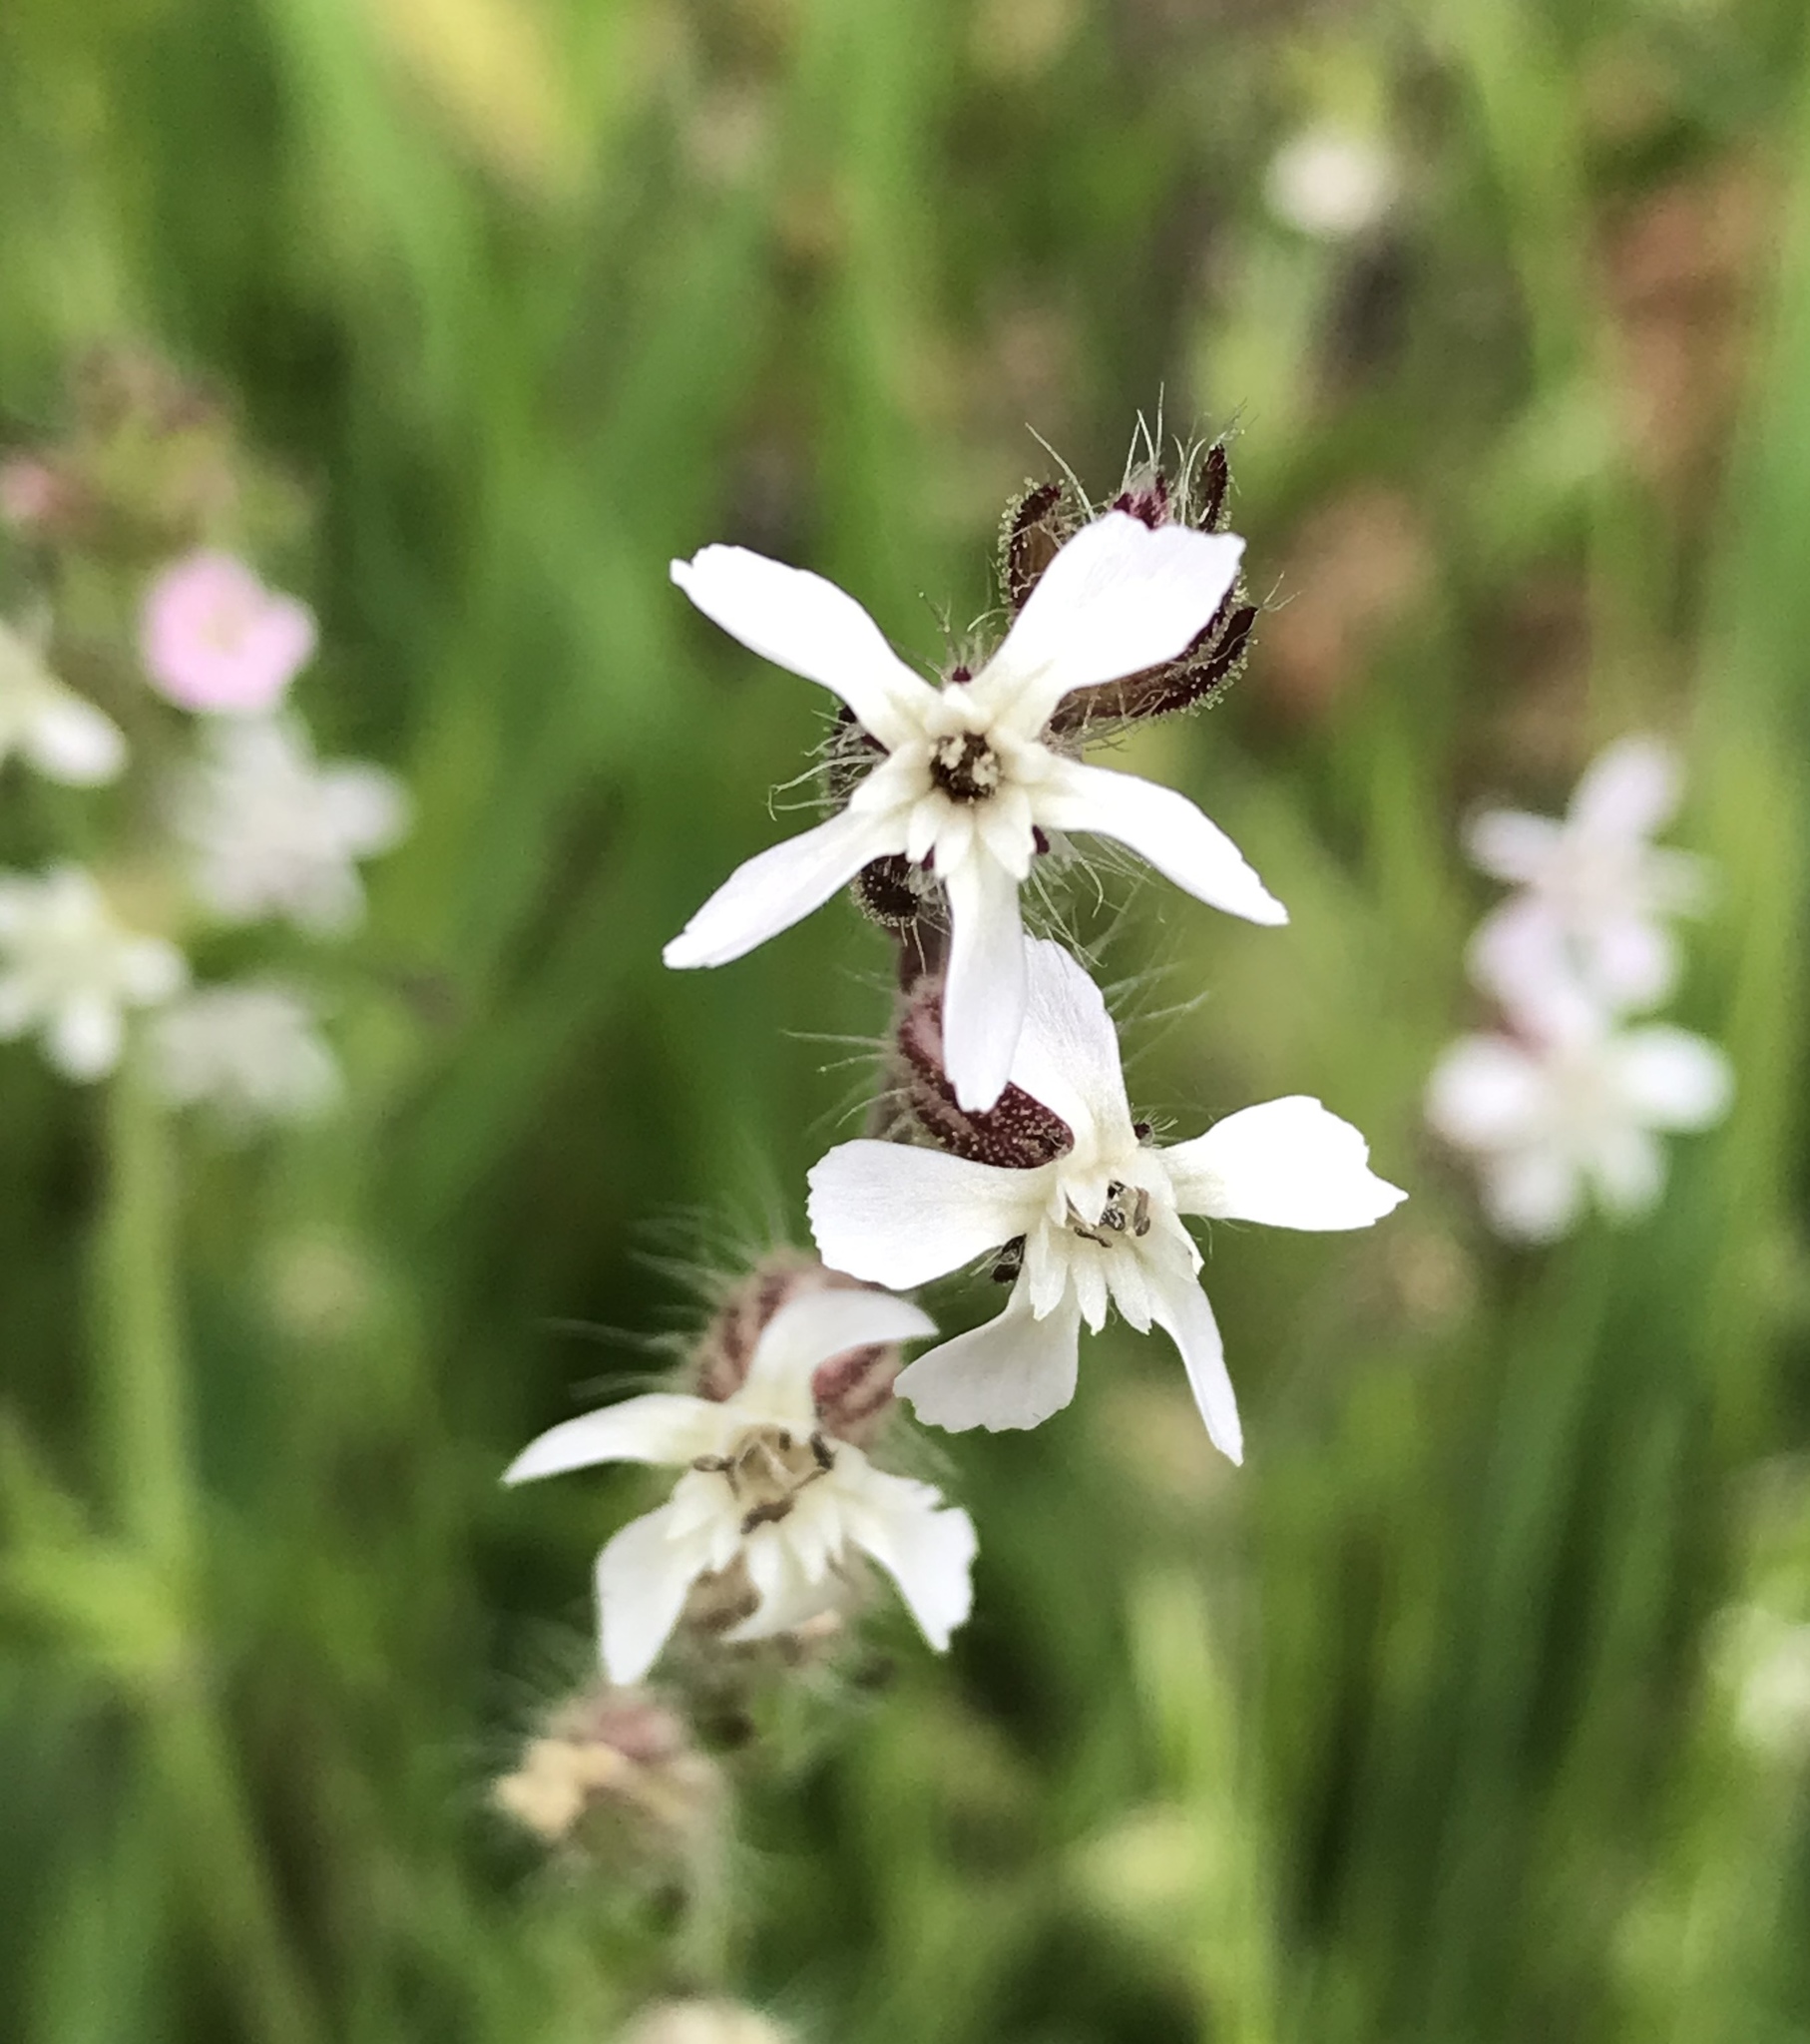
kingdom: Plantae
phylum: Tracheophyta
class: Magnoliopsida
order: Caryophyllales
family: Caryophyllaceae
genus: Silene
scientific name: Silene gallica
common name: Small-flowered catchfly
